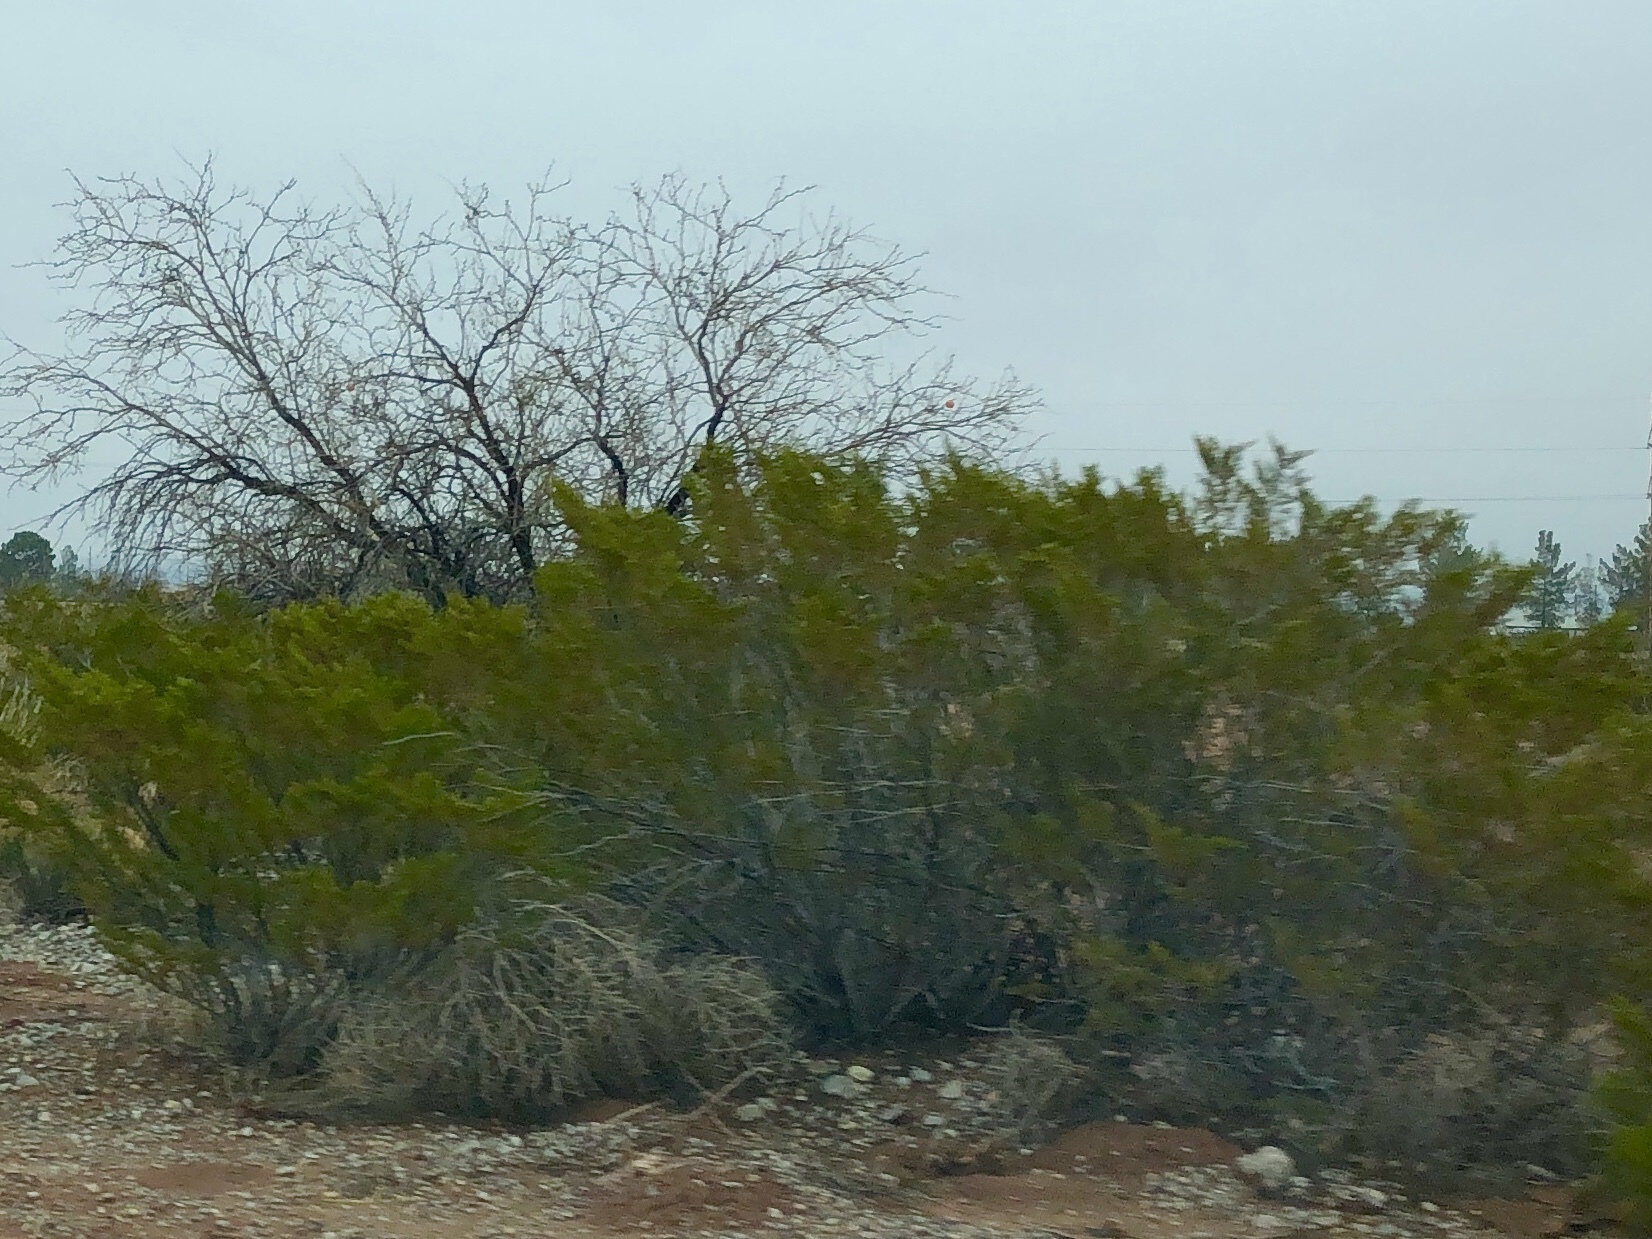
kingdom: Plantae
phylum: Tracheophyta
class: Magnoliopsida
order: Zygophyllales
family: Zygophyllaceae
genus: Larrea
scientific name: Larrea tridentata
